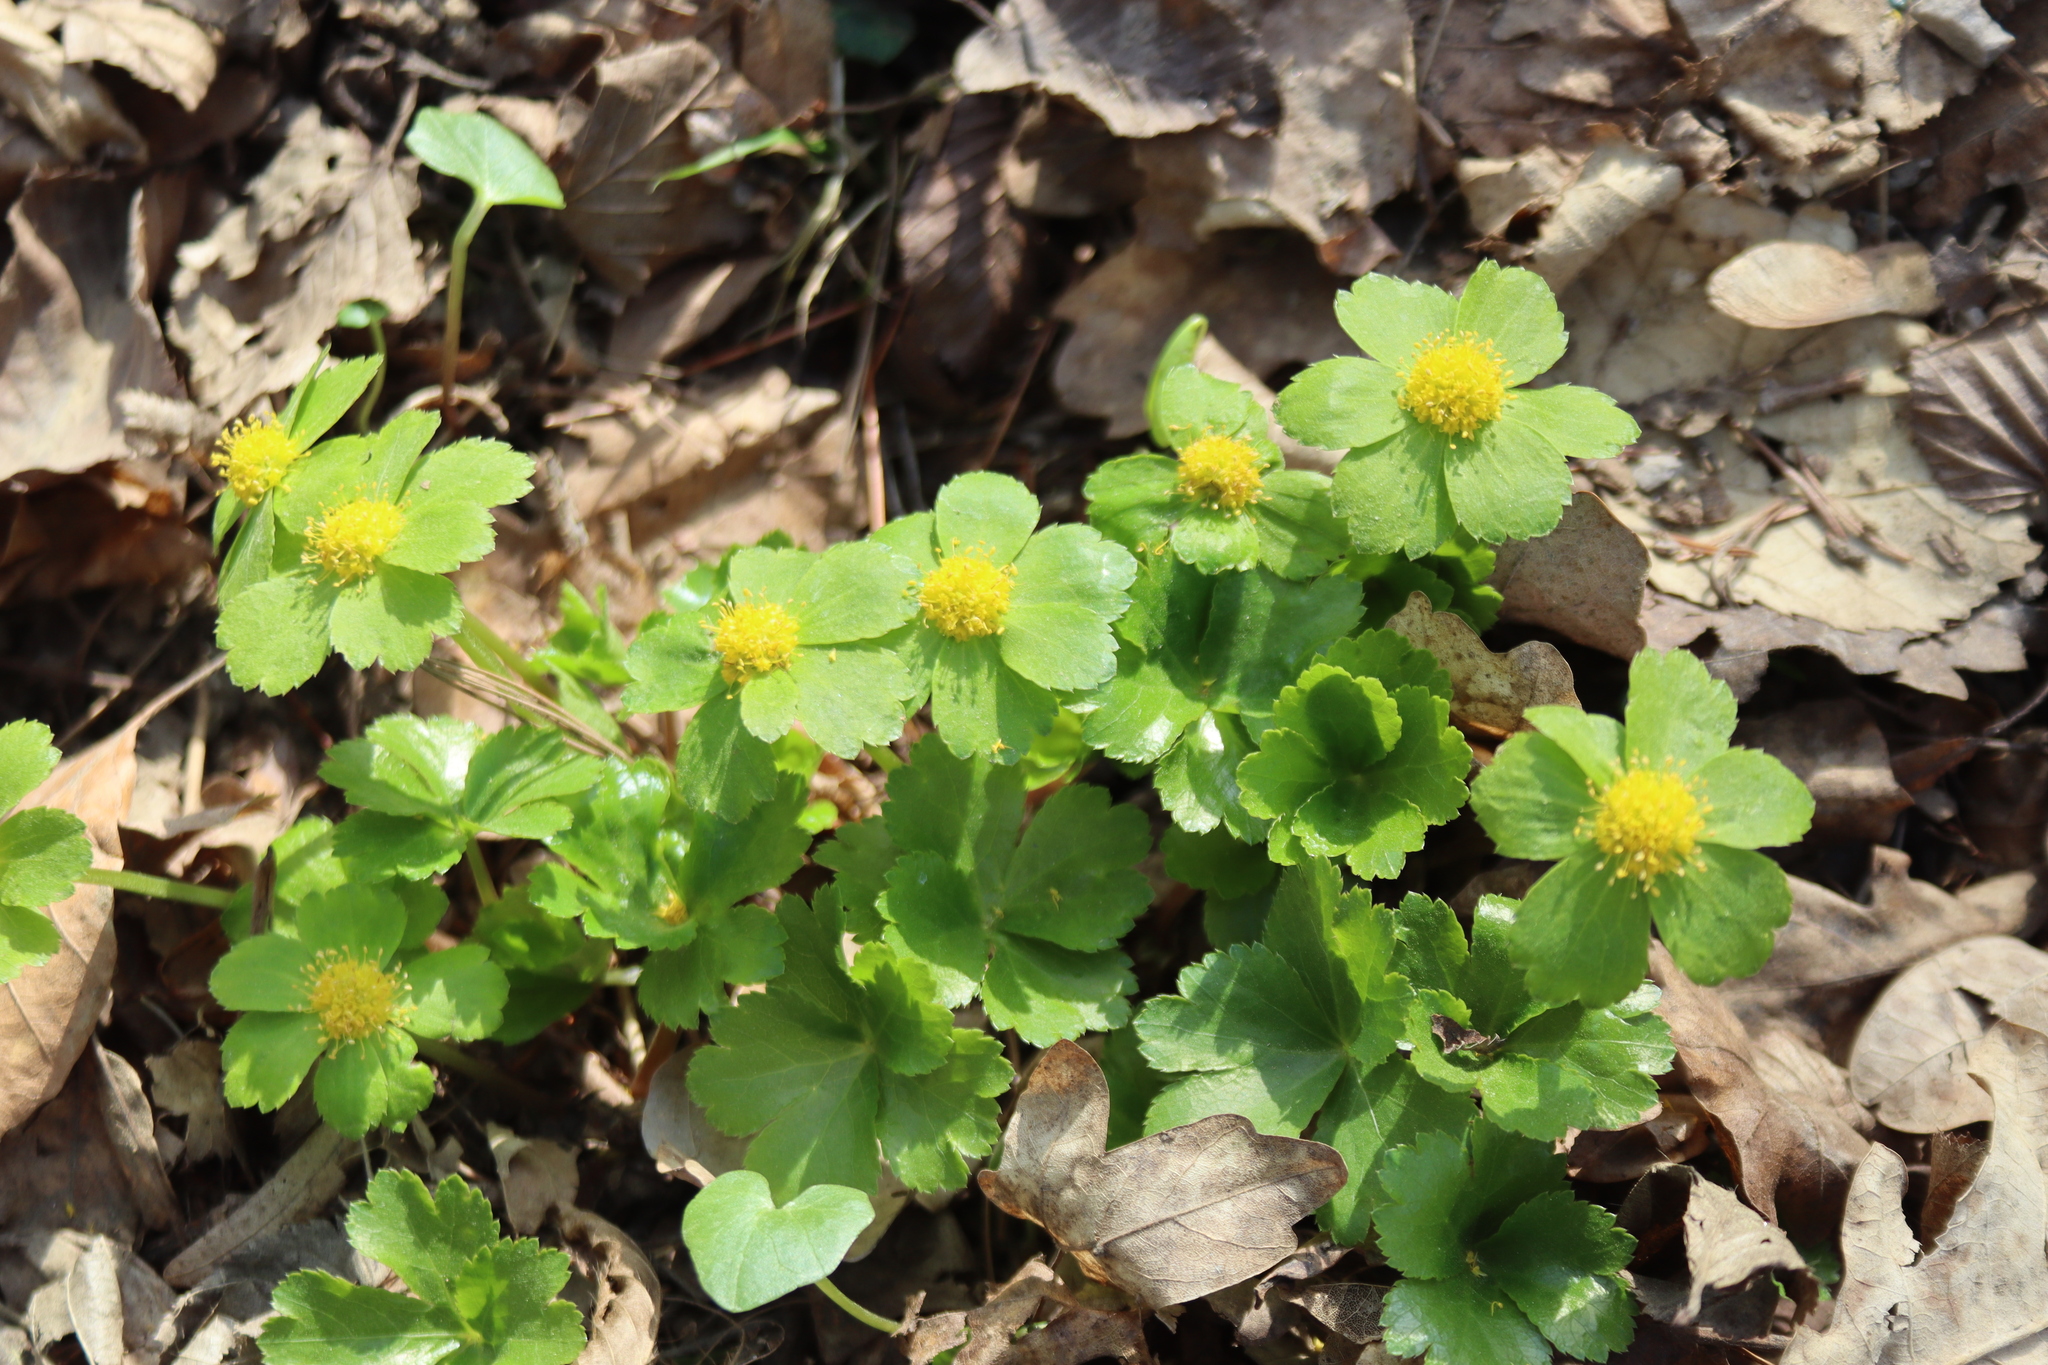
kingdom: Plantae
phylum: Tracheophyta
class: Magnoliopsida
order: Apiales
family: Apiaceae
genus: Sanicula
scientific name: Sanicula epipactis
